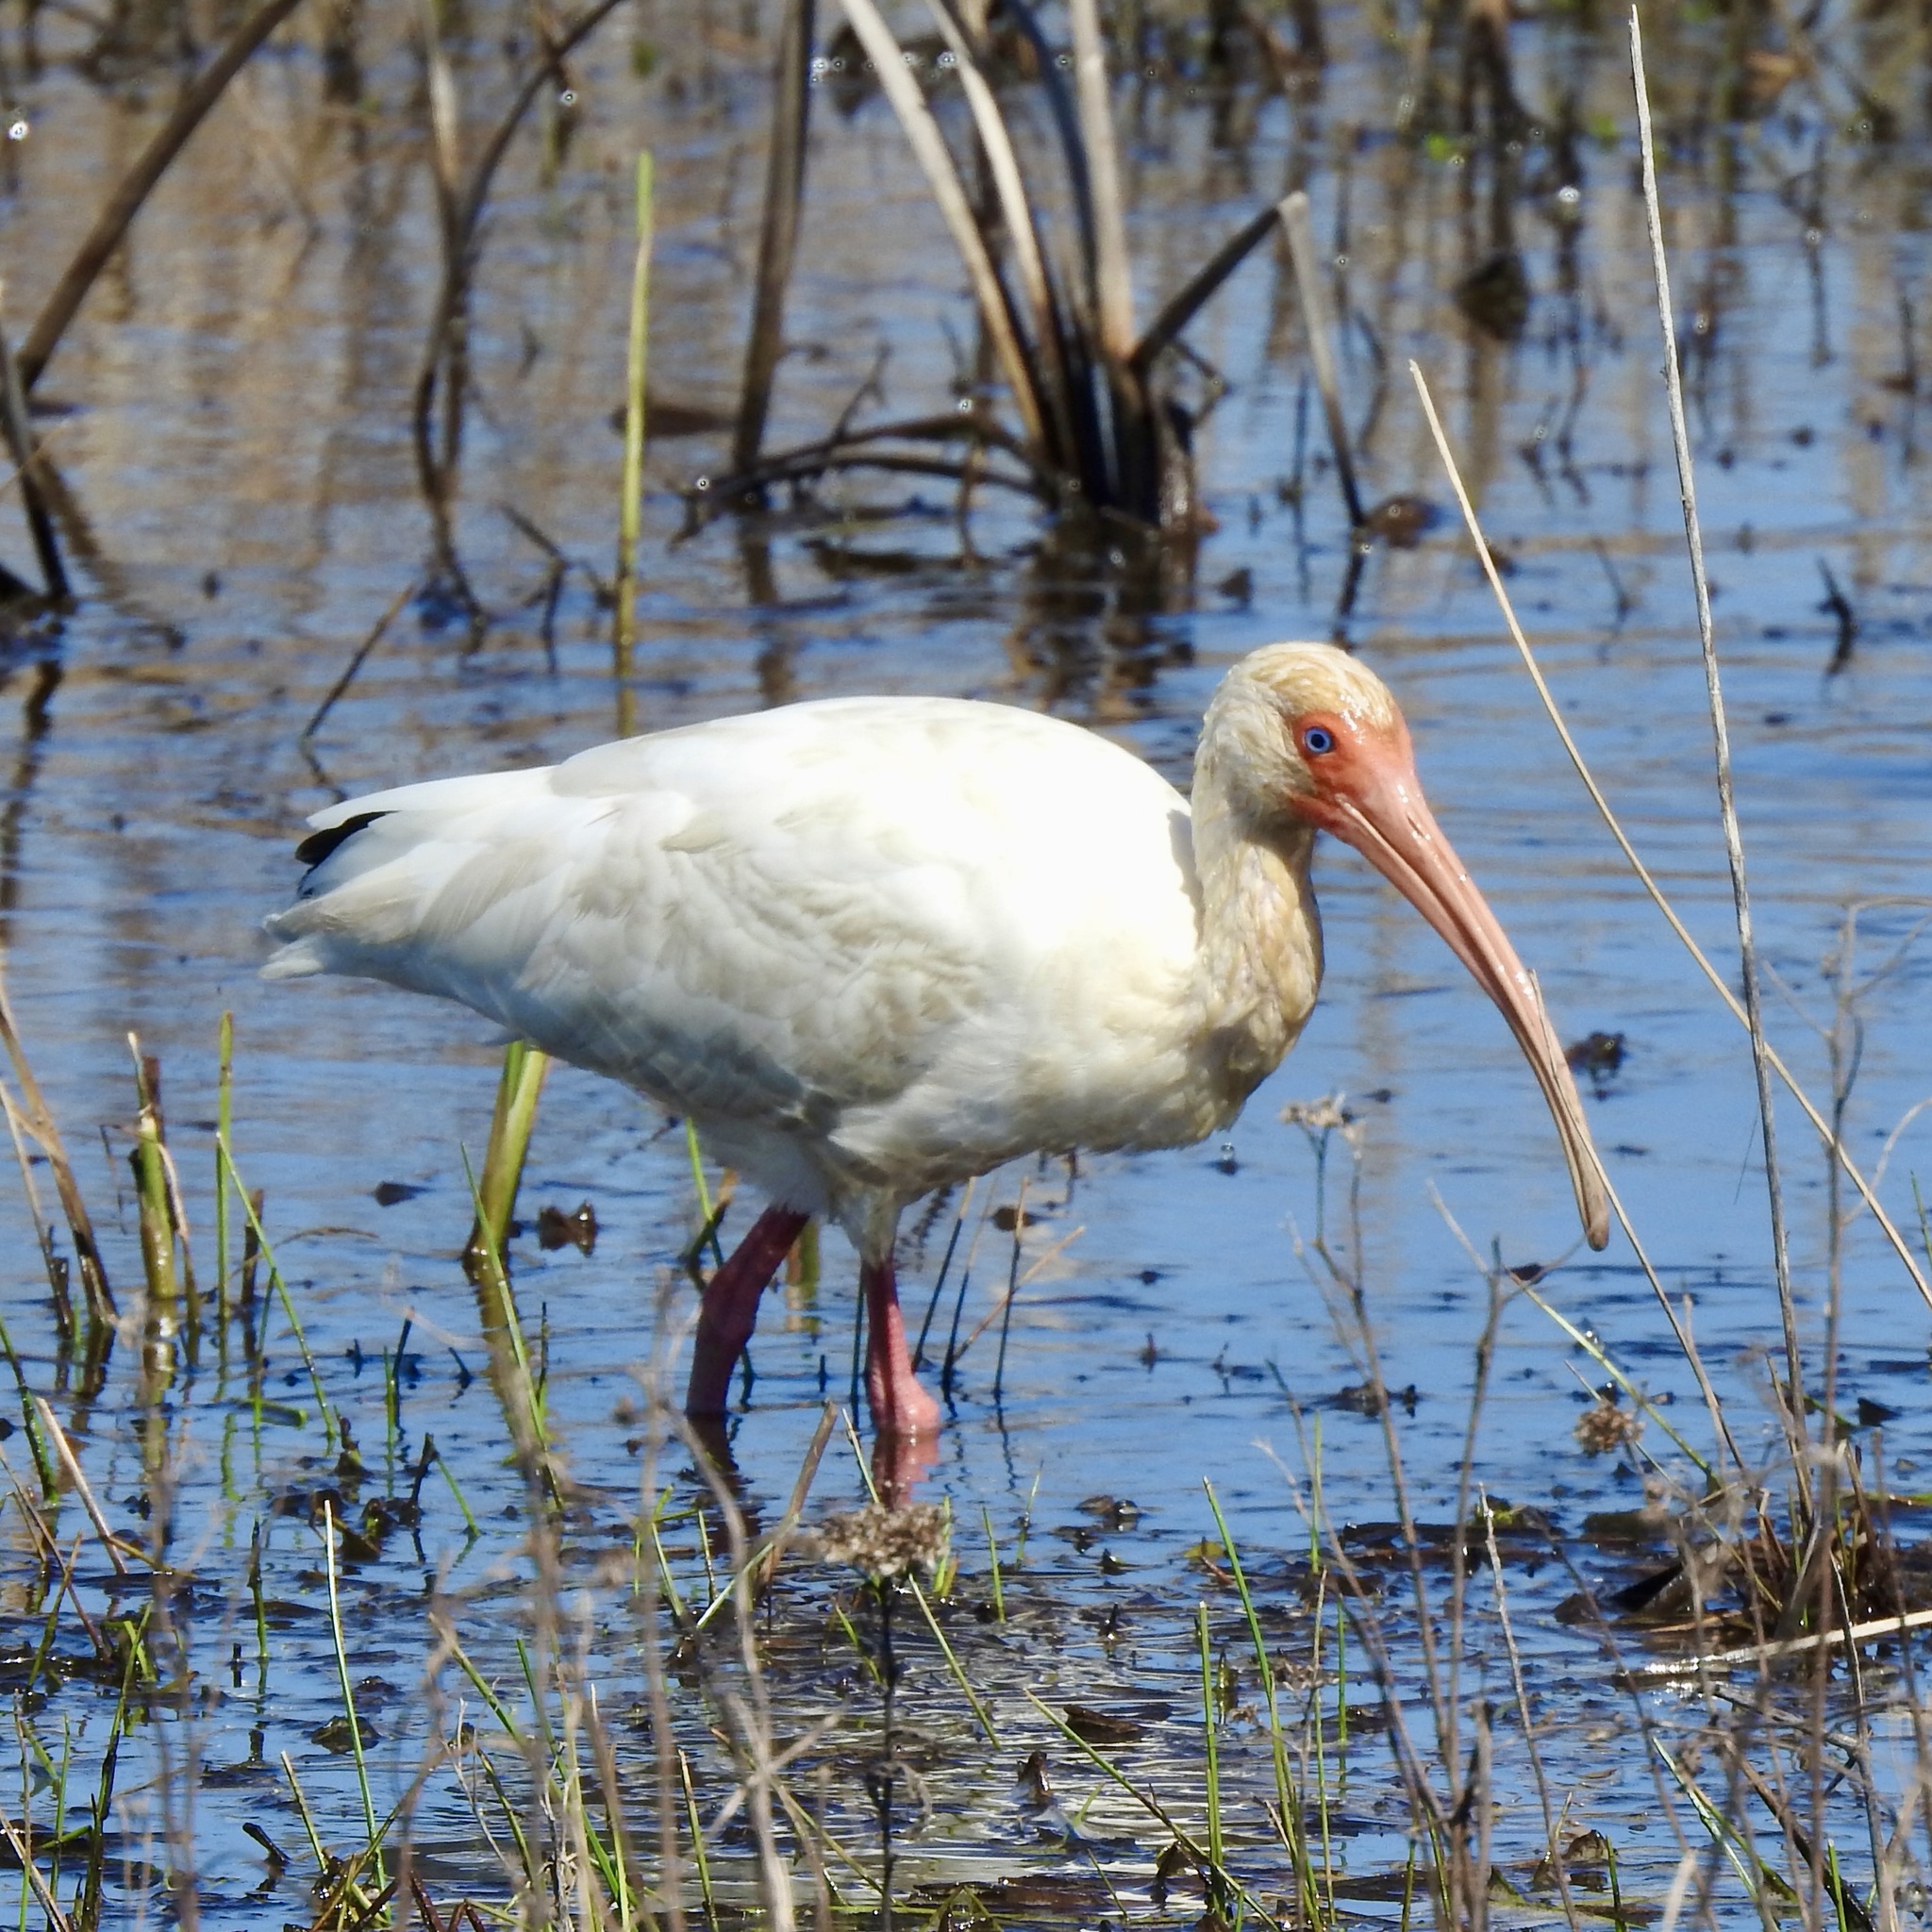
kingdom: Animalia
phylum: Chordata
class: Aves
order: Pelecaniformes
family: Threskiornithidae
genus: Eudocimus
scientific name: Eudocimus albus
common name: White ibis
